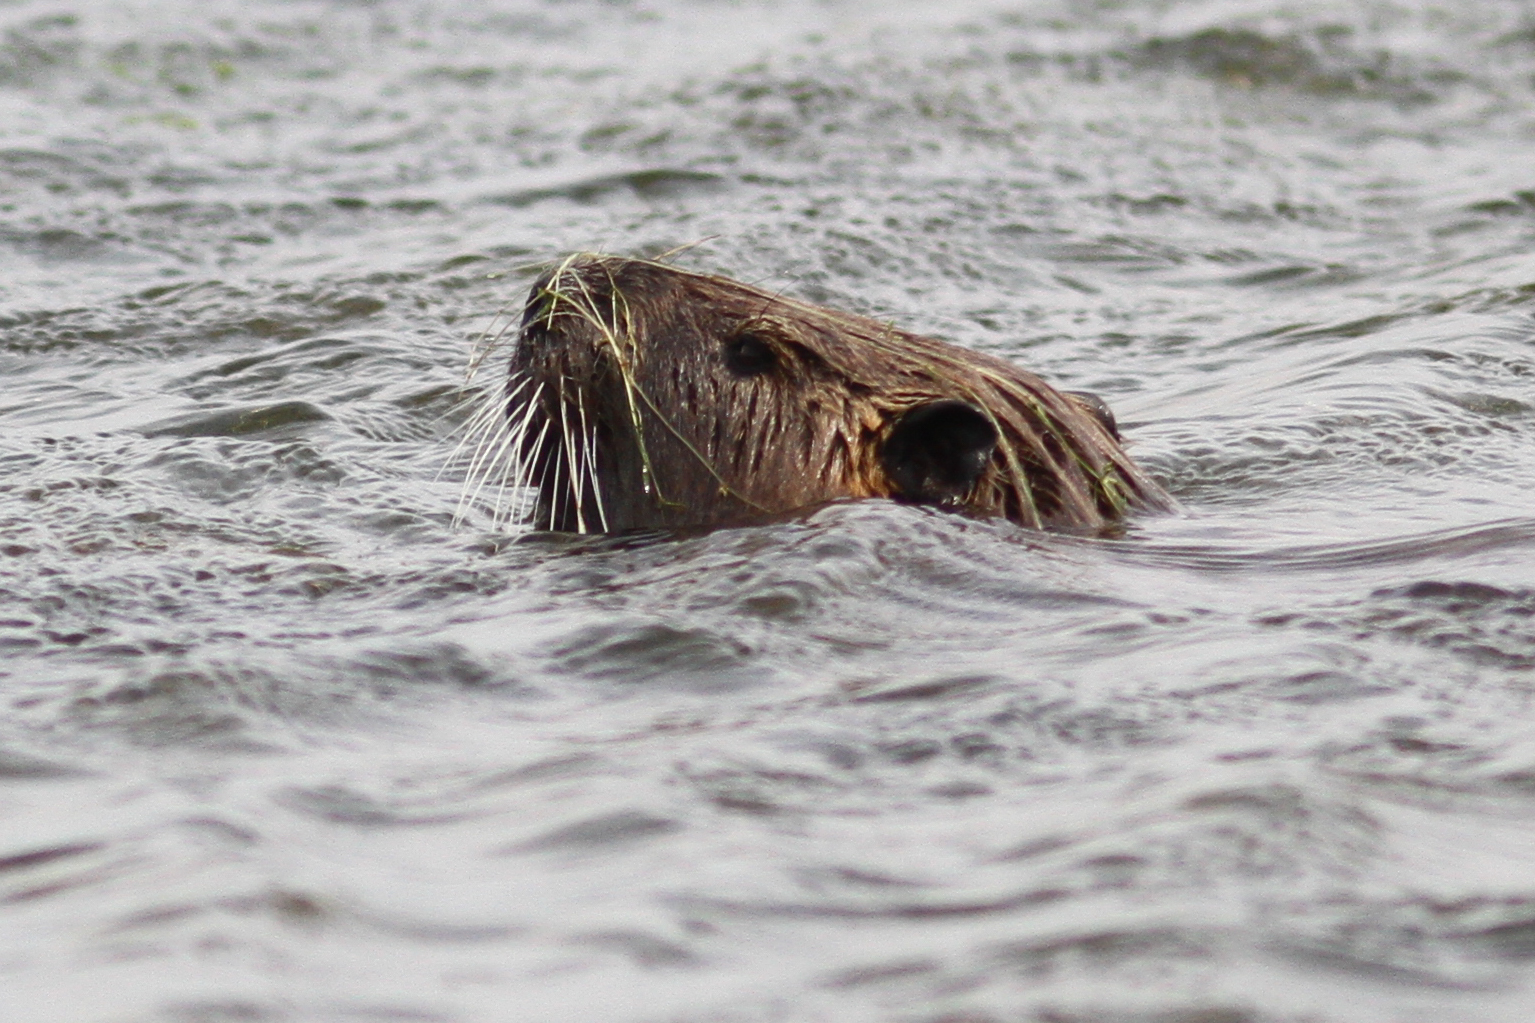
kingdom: Animalia
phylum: Chordata
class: Mammalia
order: Rodentia
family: Myocastoridae
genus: Myocastor
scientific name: Myocastor coypus
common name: Coypu
